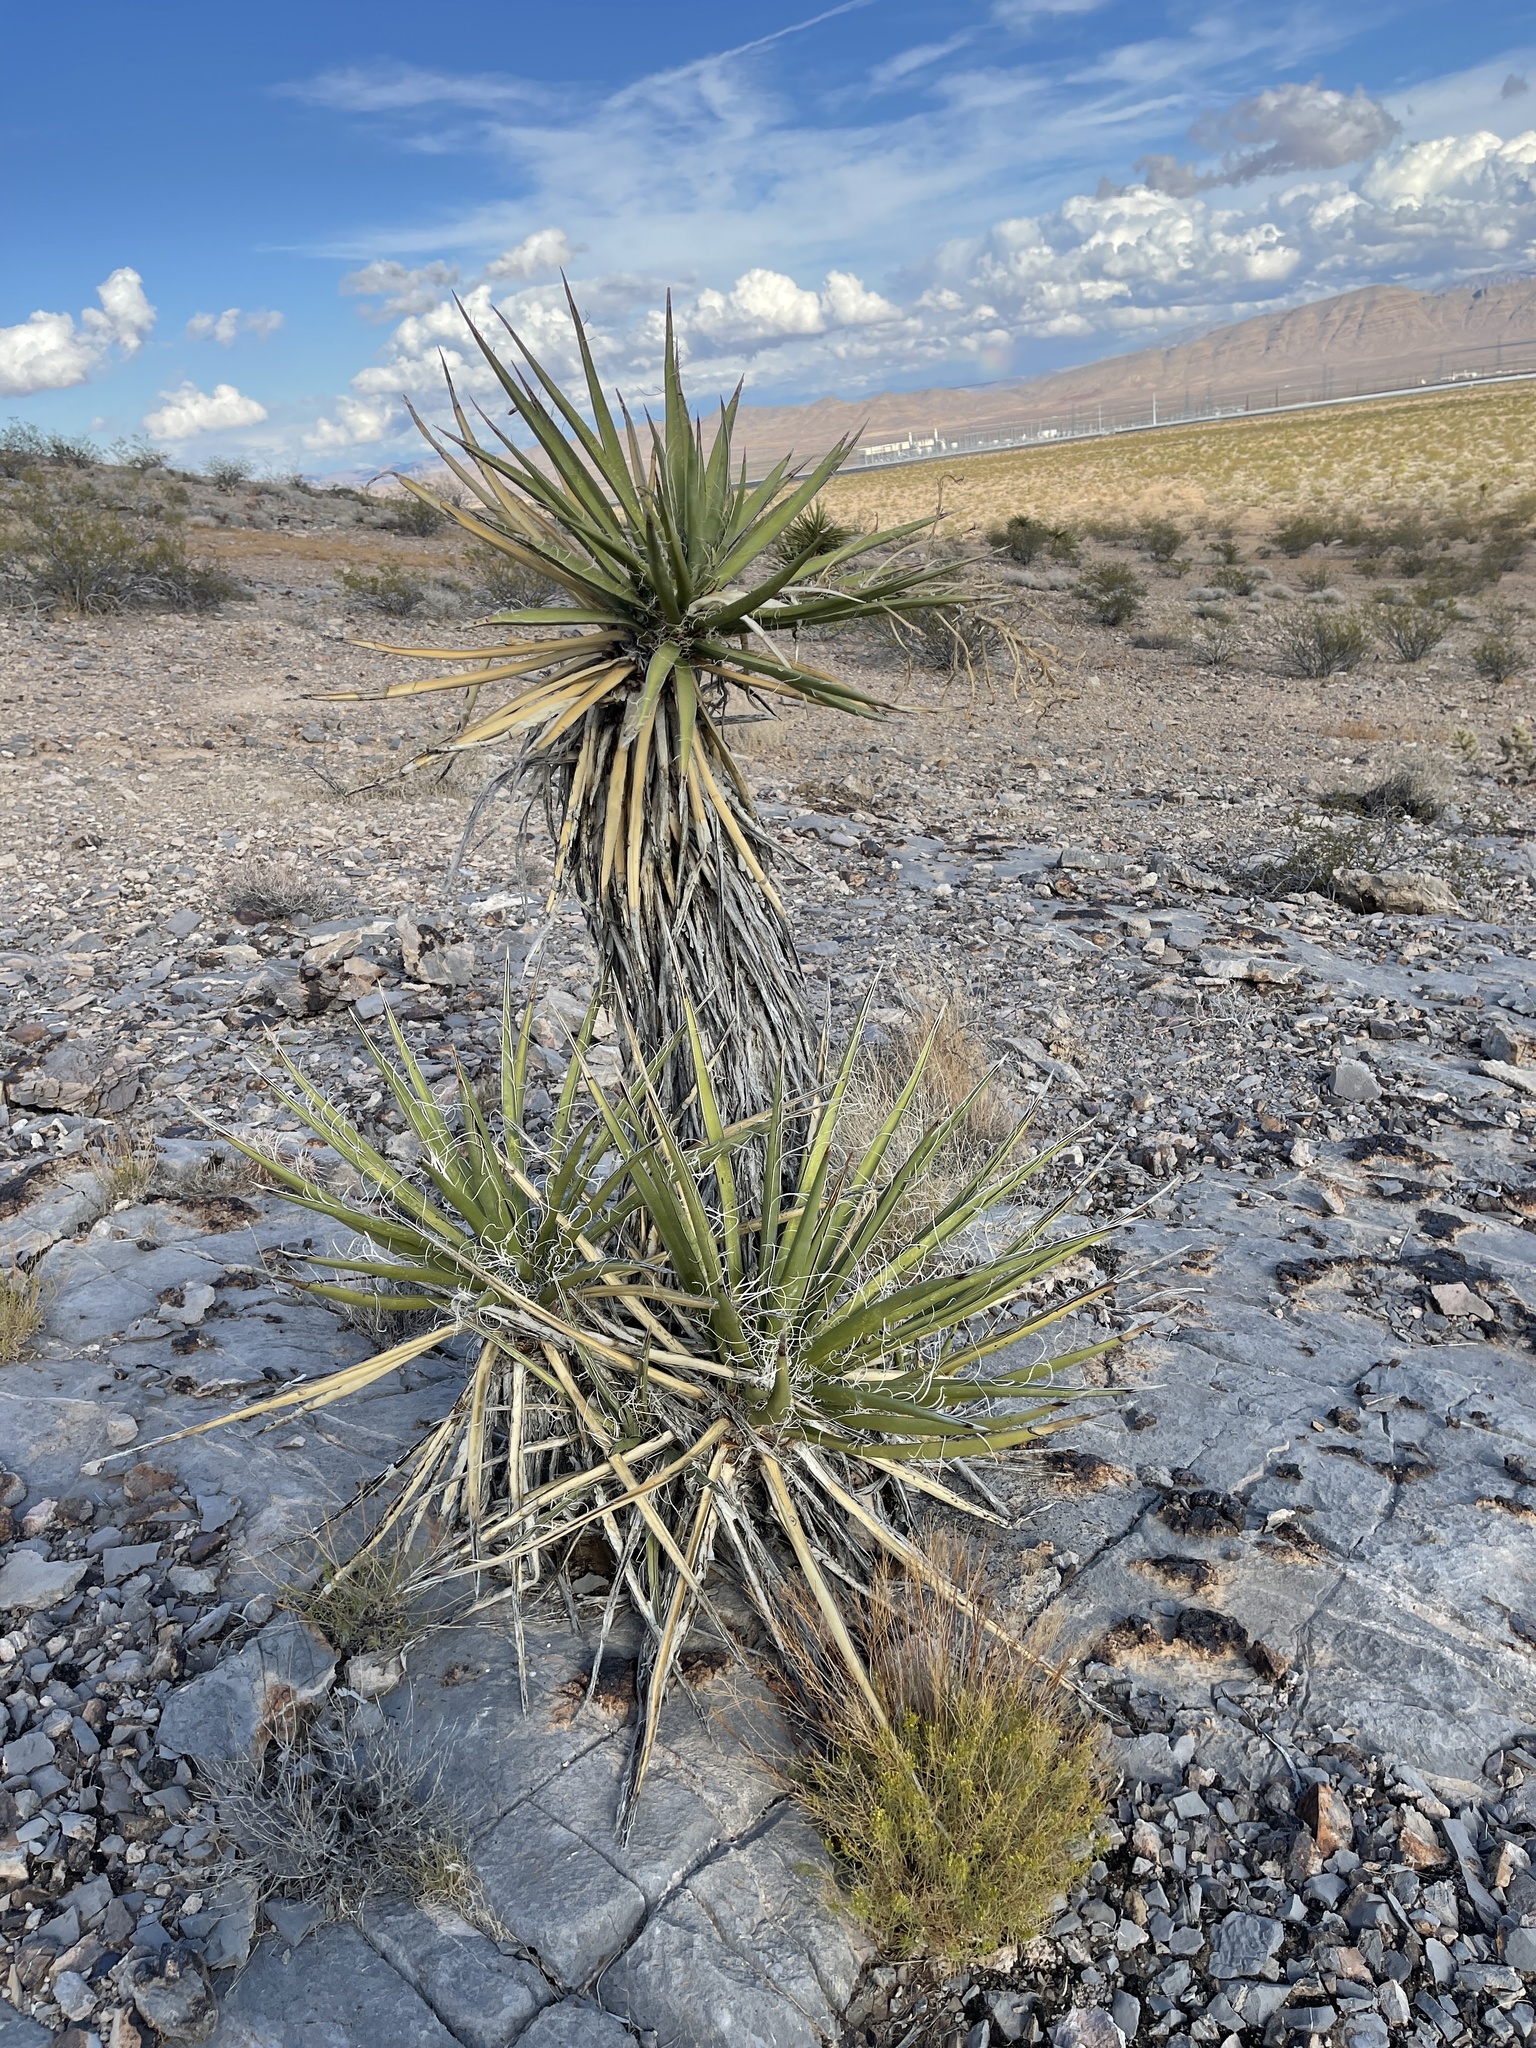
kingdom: Plantae
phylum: Tracheophyta
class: Liliopsida
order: Asparagales
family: Asparagaceae
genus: Yucca
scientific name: Yucca schidigera
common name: Mojave yucca
